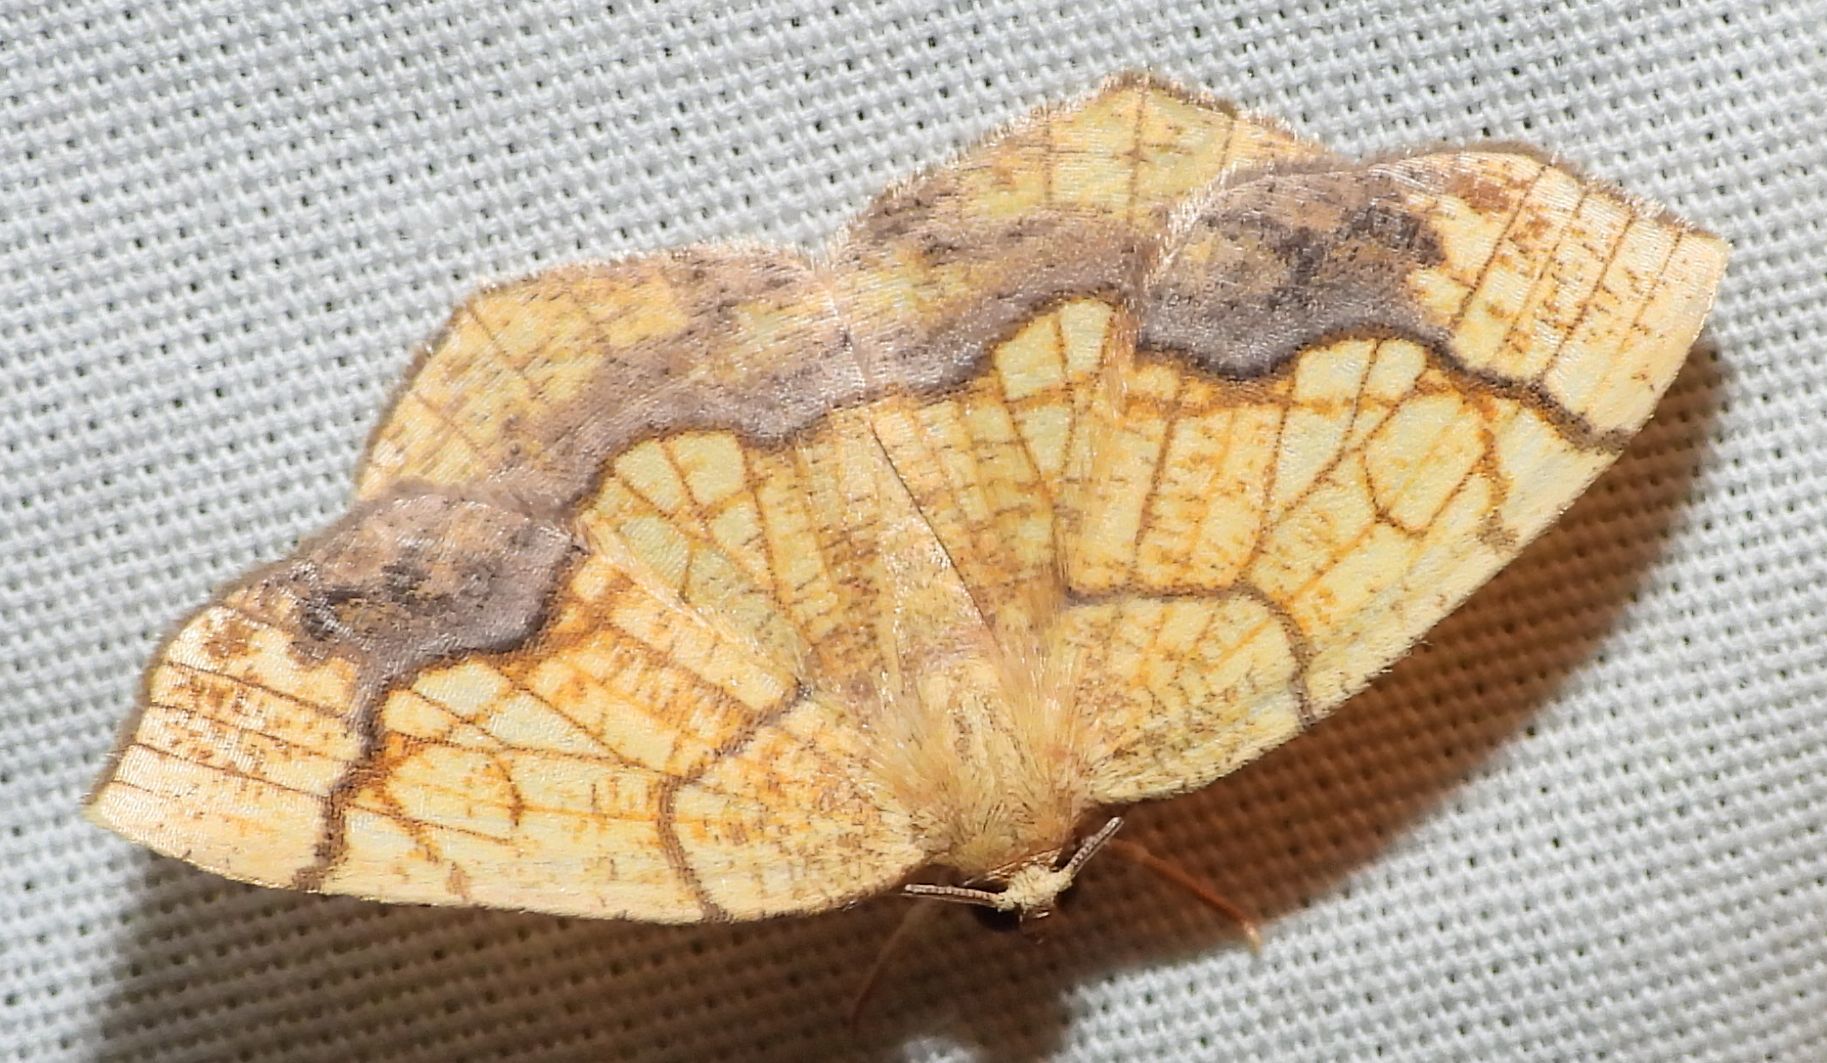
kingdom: Animalia
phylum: Arthropoda
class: Insecta
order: Lepidoptera
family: Geometridae
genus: Nematocampa
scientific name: Nematocampa resistaria
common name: Horned spanworm moth
